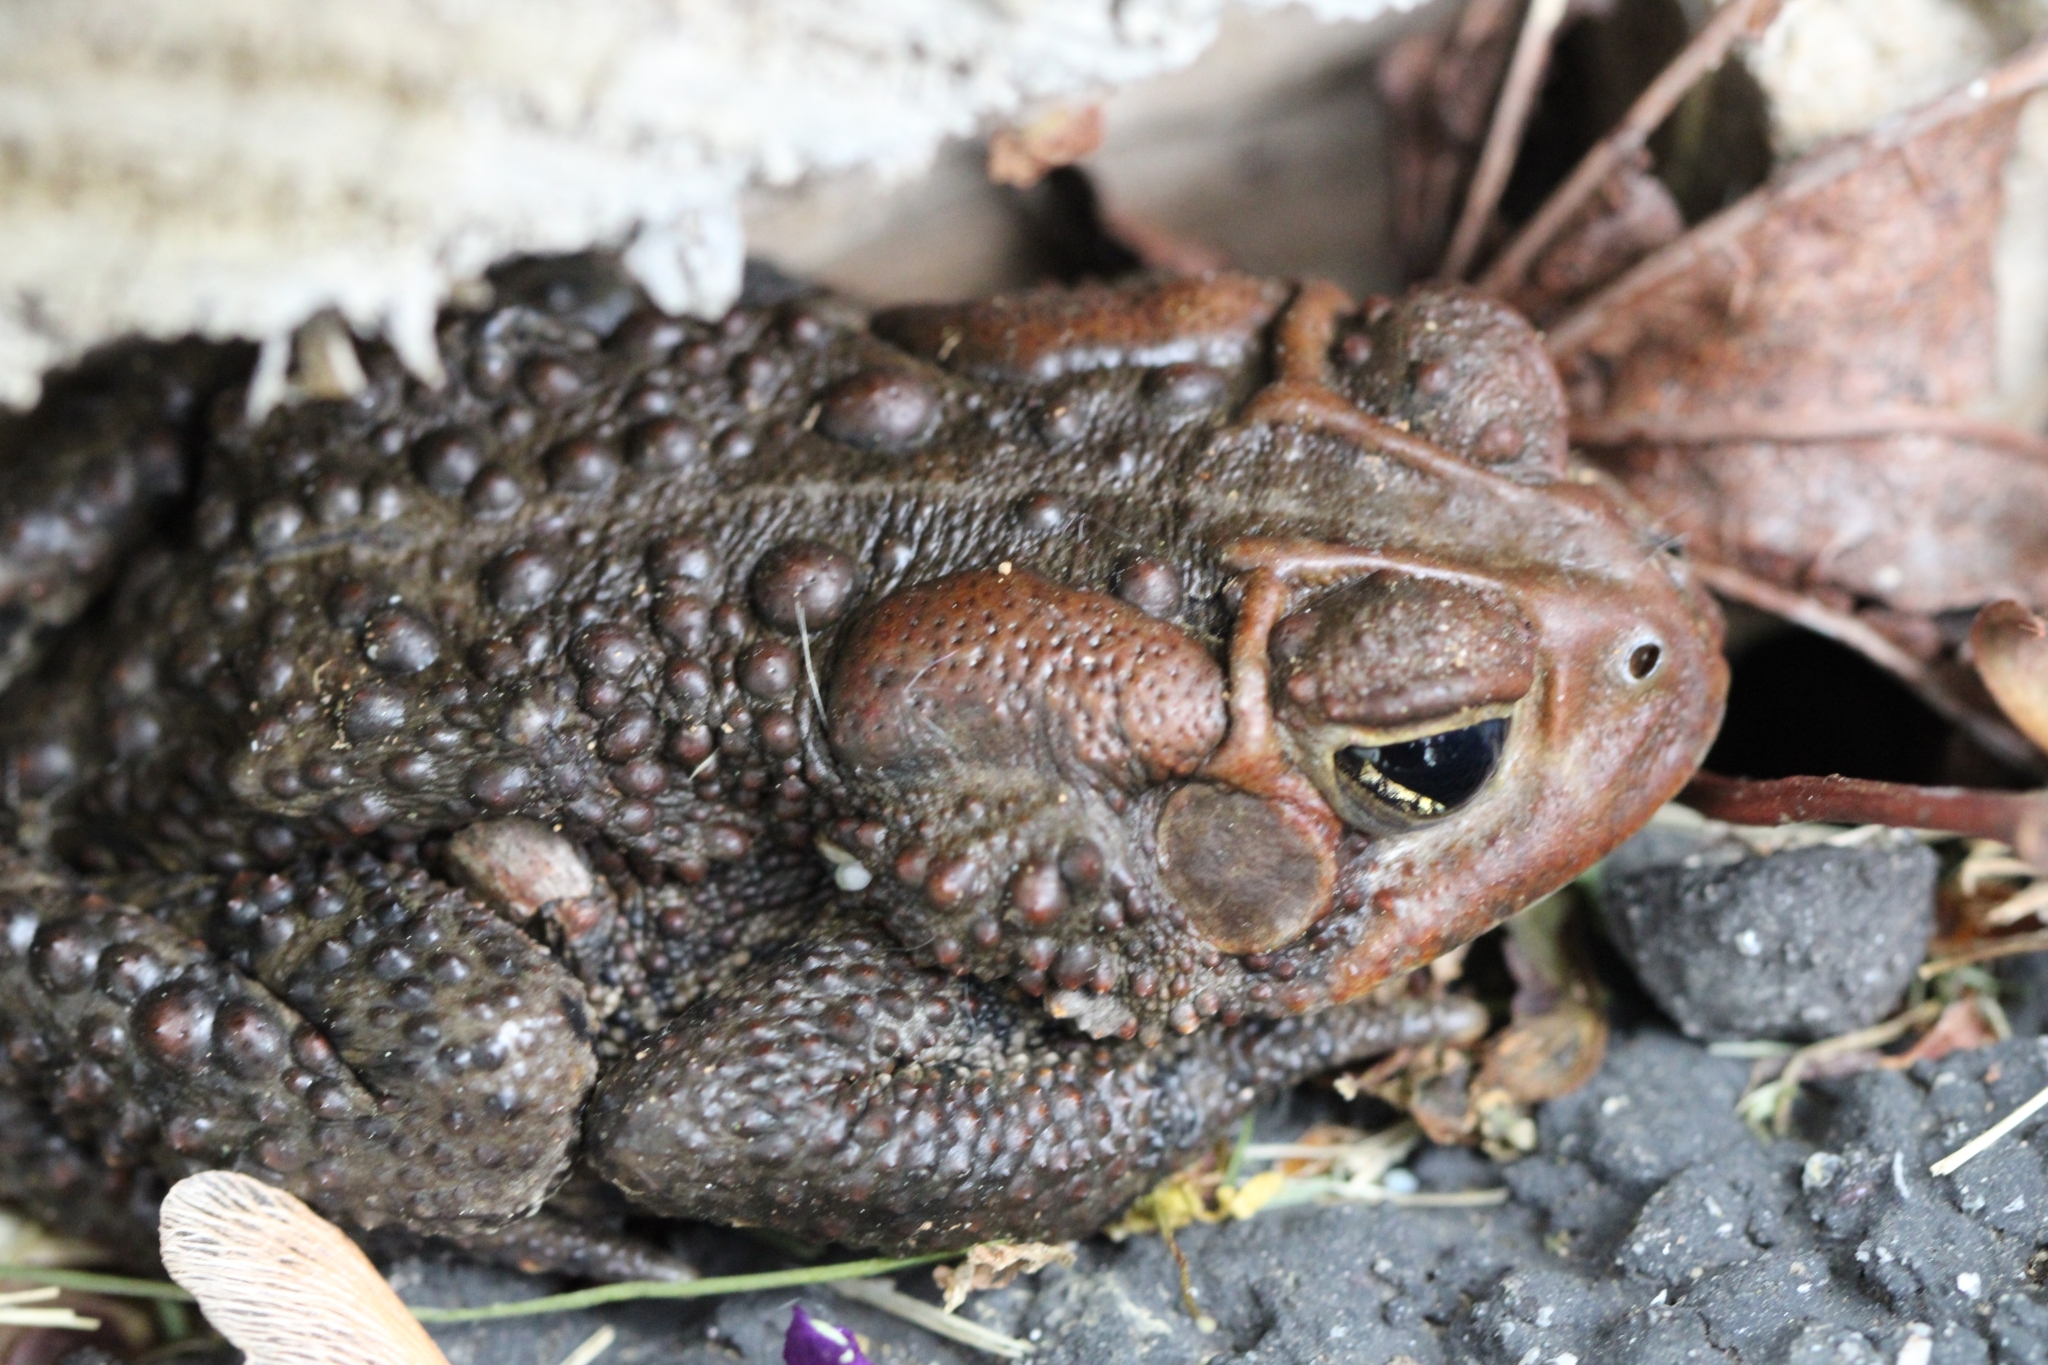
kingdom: Animalia
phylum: Chordata
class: Amphibia
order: Anura
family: Bufonidae
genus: Anaxyrus
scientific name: Anaxyrus americanus
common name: American toad
